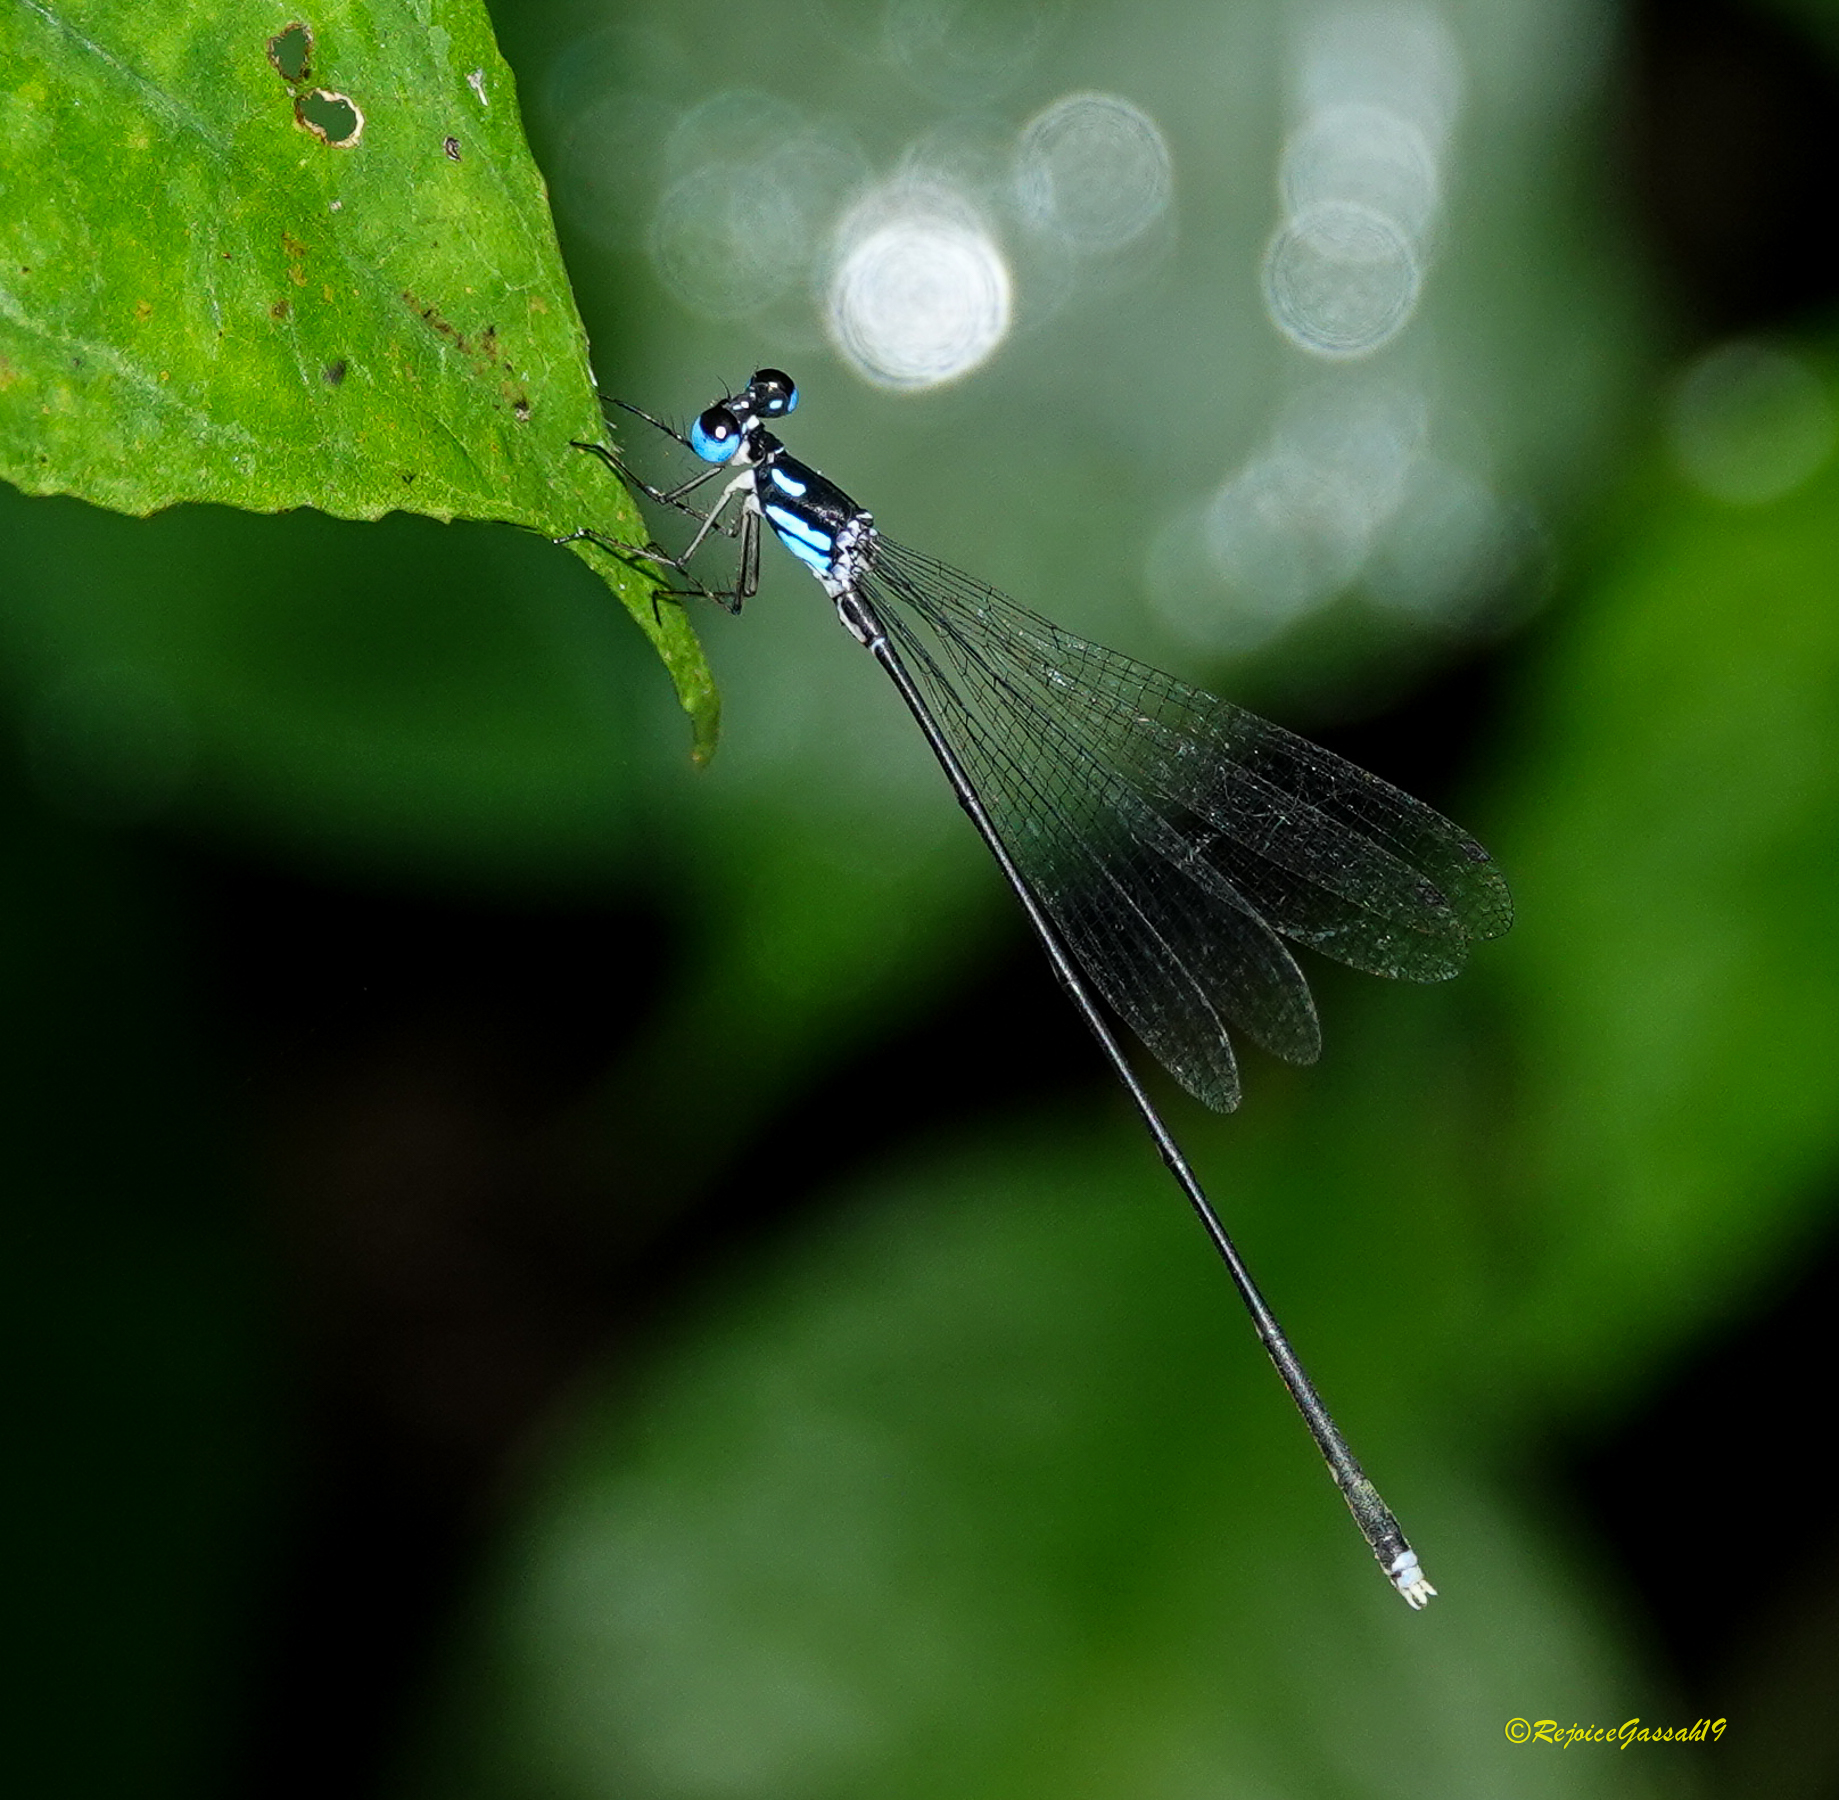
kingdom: Animalia
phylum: Arthropoda
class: Insecta
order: Odonata
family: Platycnemididae
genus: Coeliccia
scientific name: Coeliccia bimaculata
